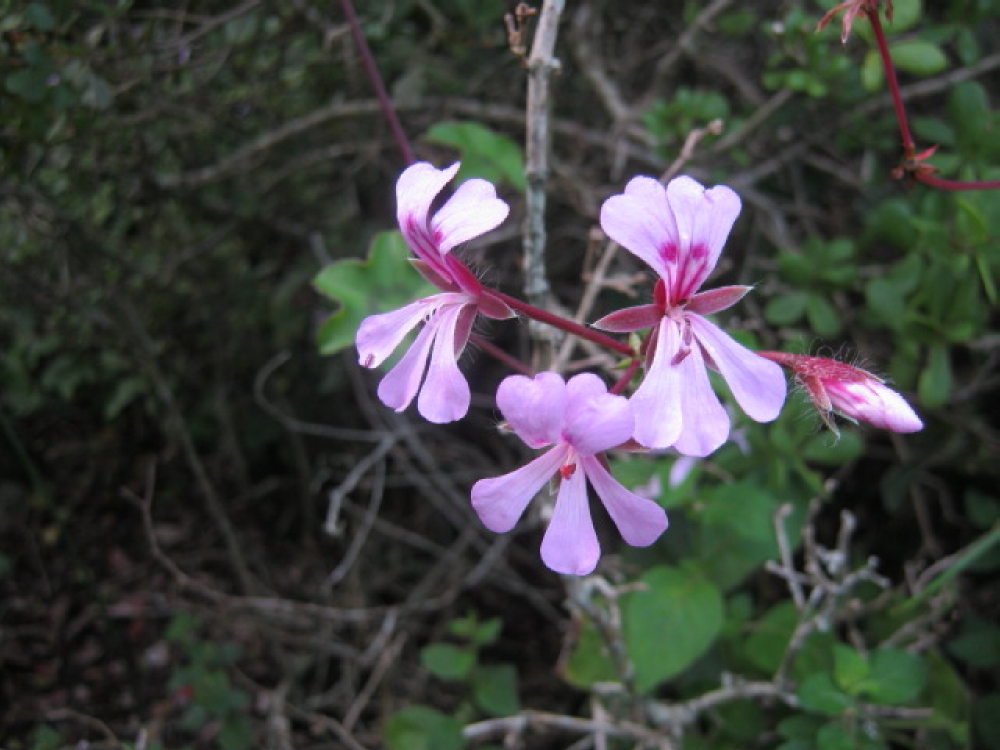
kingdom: Plantae
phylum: Tracheophyta
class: Magnoliopsida
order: Geraniales
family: Geraniaceae
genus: Pelargonium
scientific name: Pelargonium peltatum
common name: Ivyleaf geranium
